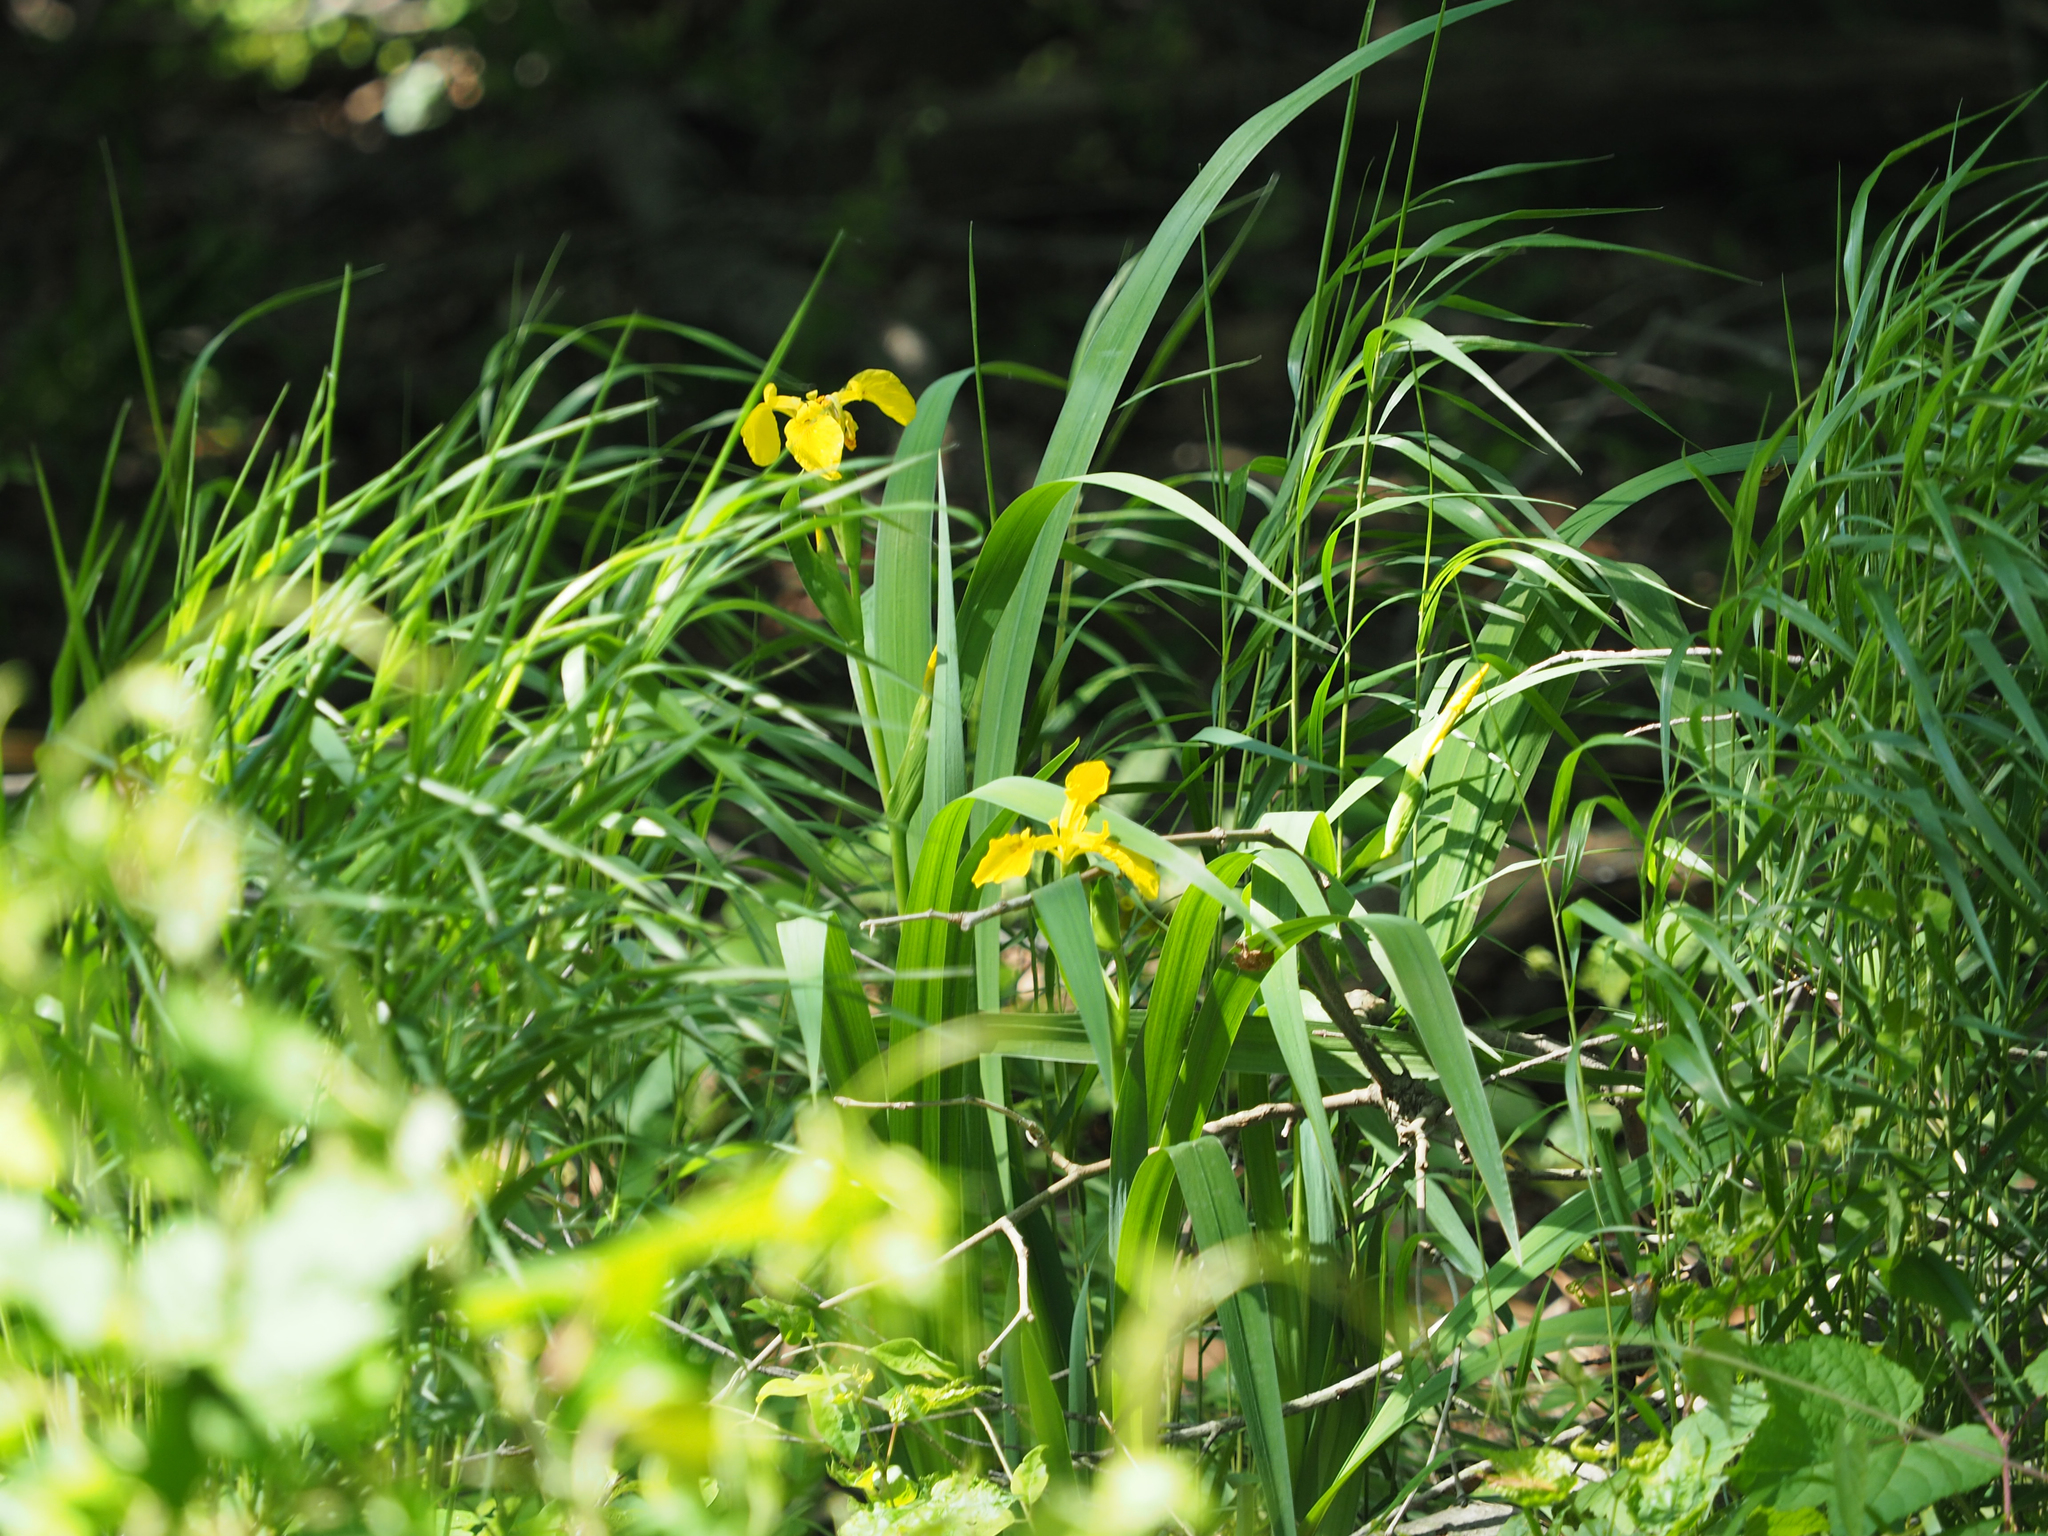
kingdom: Plantae
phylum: Tracheophyta
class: Liliopsida
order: Asparagales
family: Iridaceae
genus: Iris
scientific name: Iris pseudacorus
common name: Yellow flag
